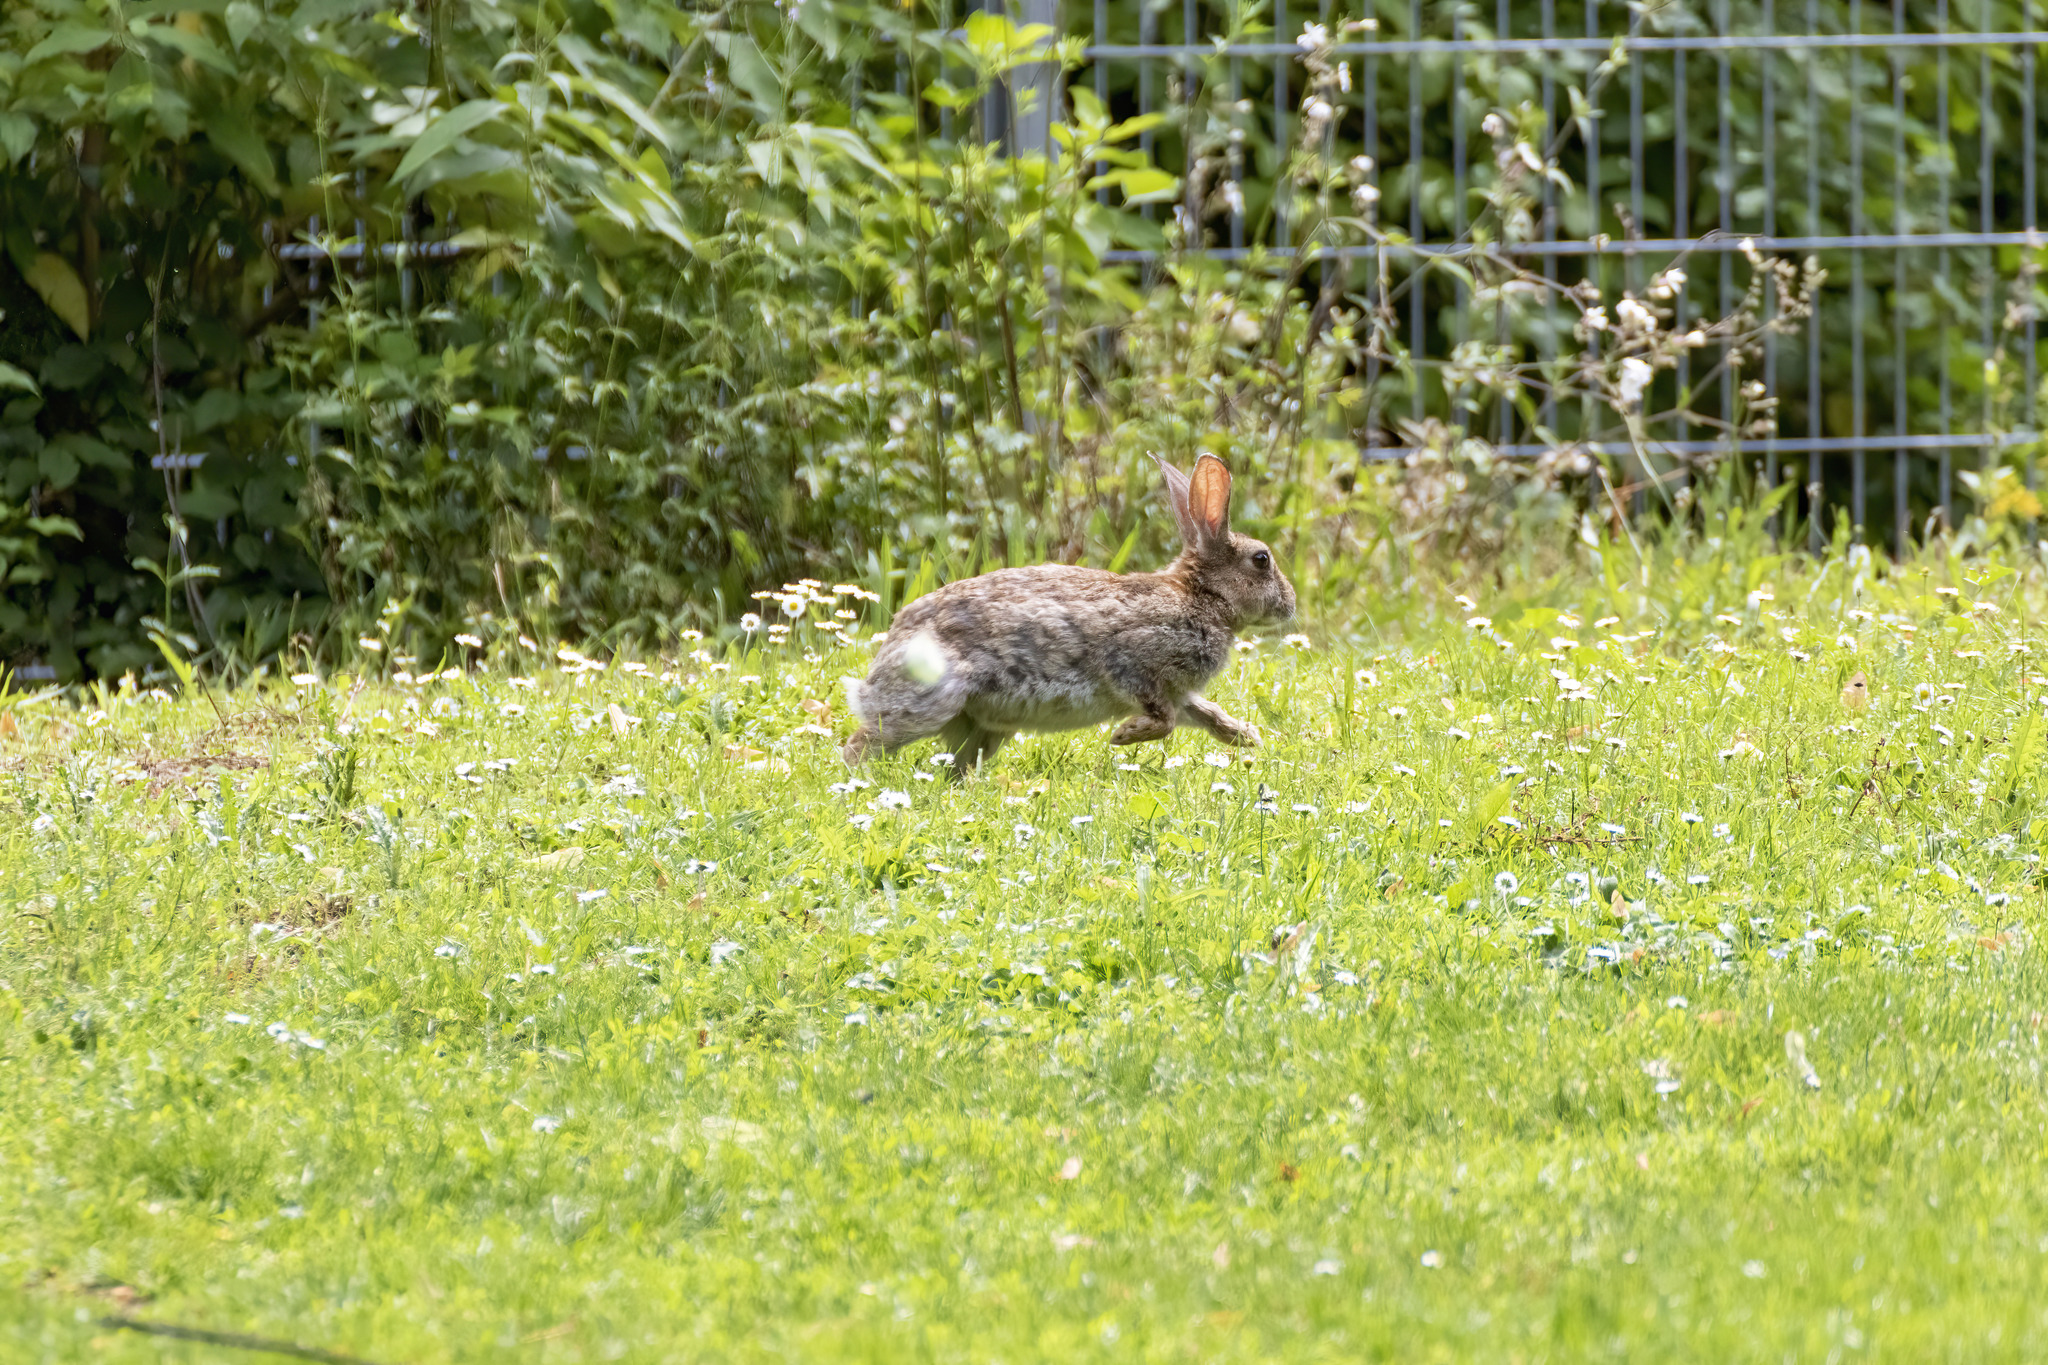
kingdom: Animalia
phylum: Chordata
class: Mammalia
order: Lagomorpha
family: Leporidae
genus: Oryctolagus
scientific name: Oryctolagus cuniculus
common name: European rabbit
